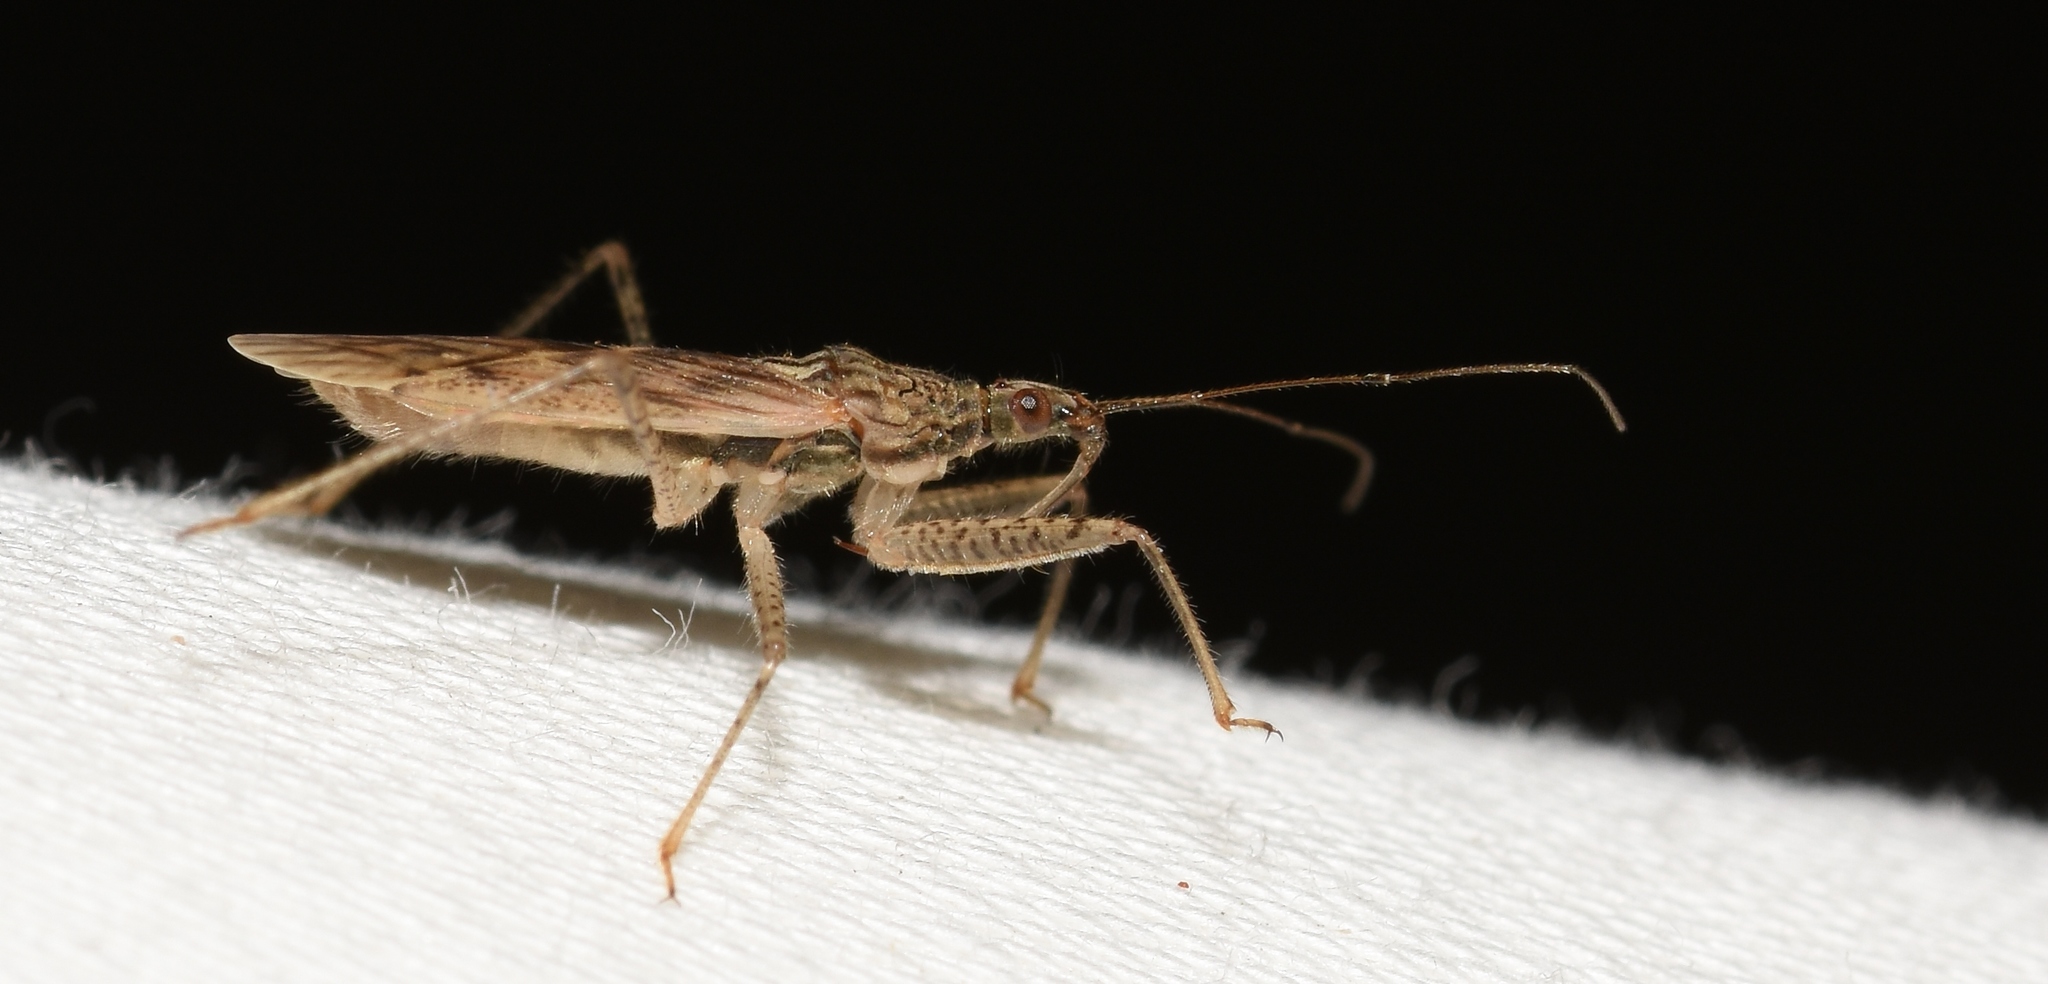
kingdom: Animalia
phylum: Arthropoda
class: Insecta
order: Hemiptera
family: Nabidae
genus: Nabis
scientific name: Nabis roseipennis
